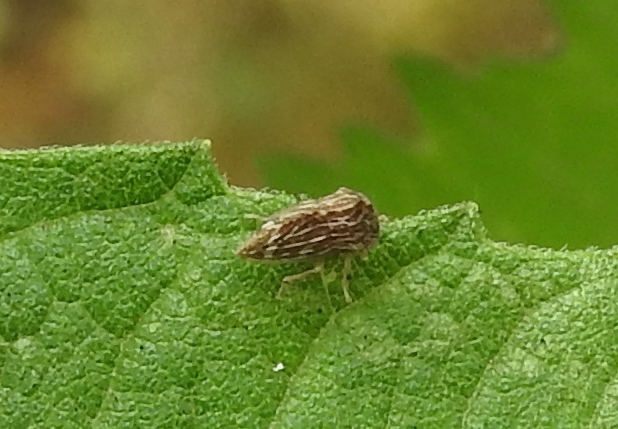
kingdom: Animalia
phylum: Arthropoda
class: Insecta
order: Hemiptera
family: Membracidae
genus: Publilia
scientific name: Publilia erecta
